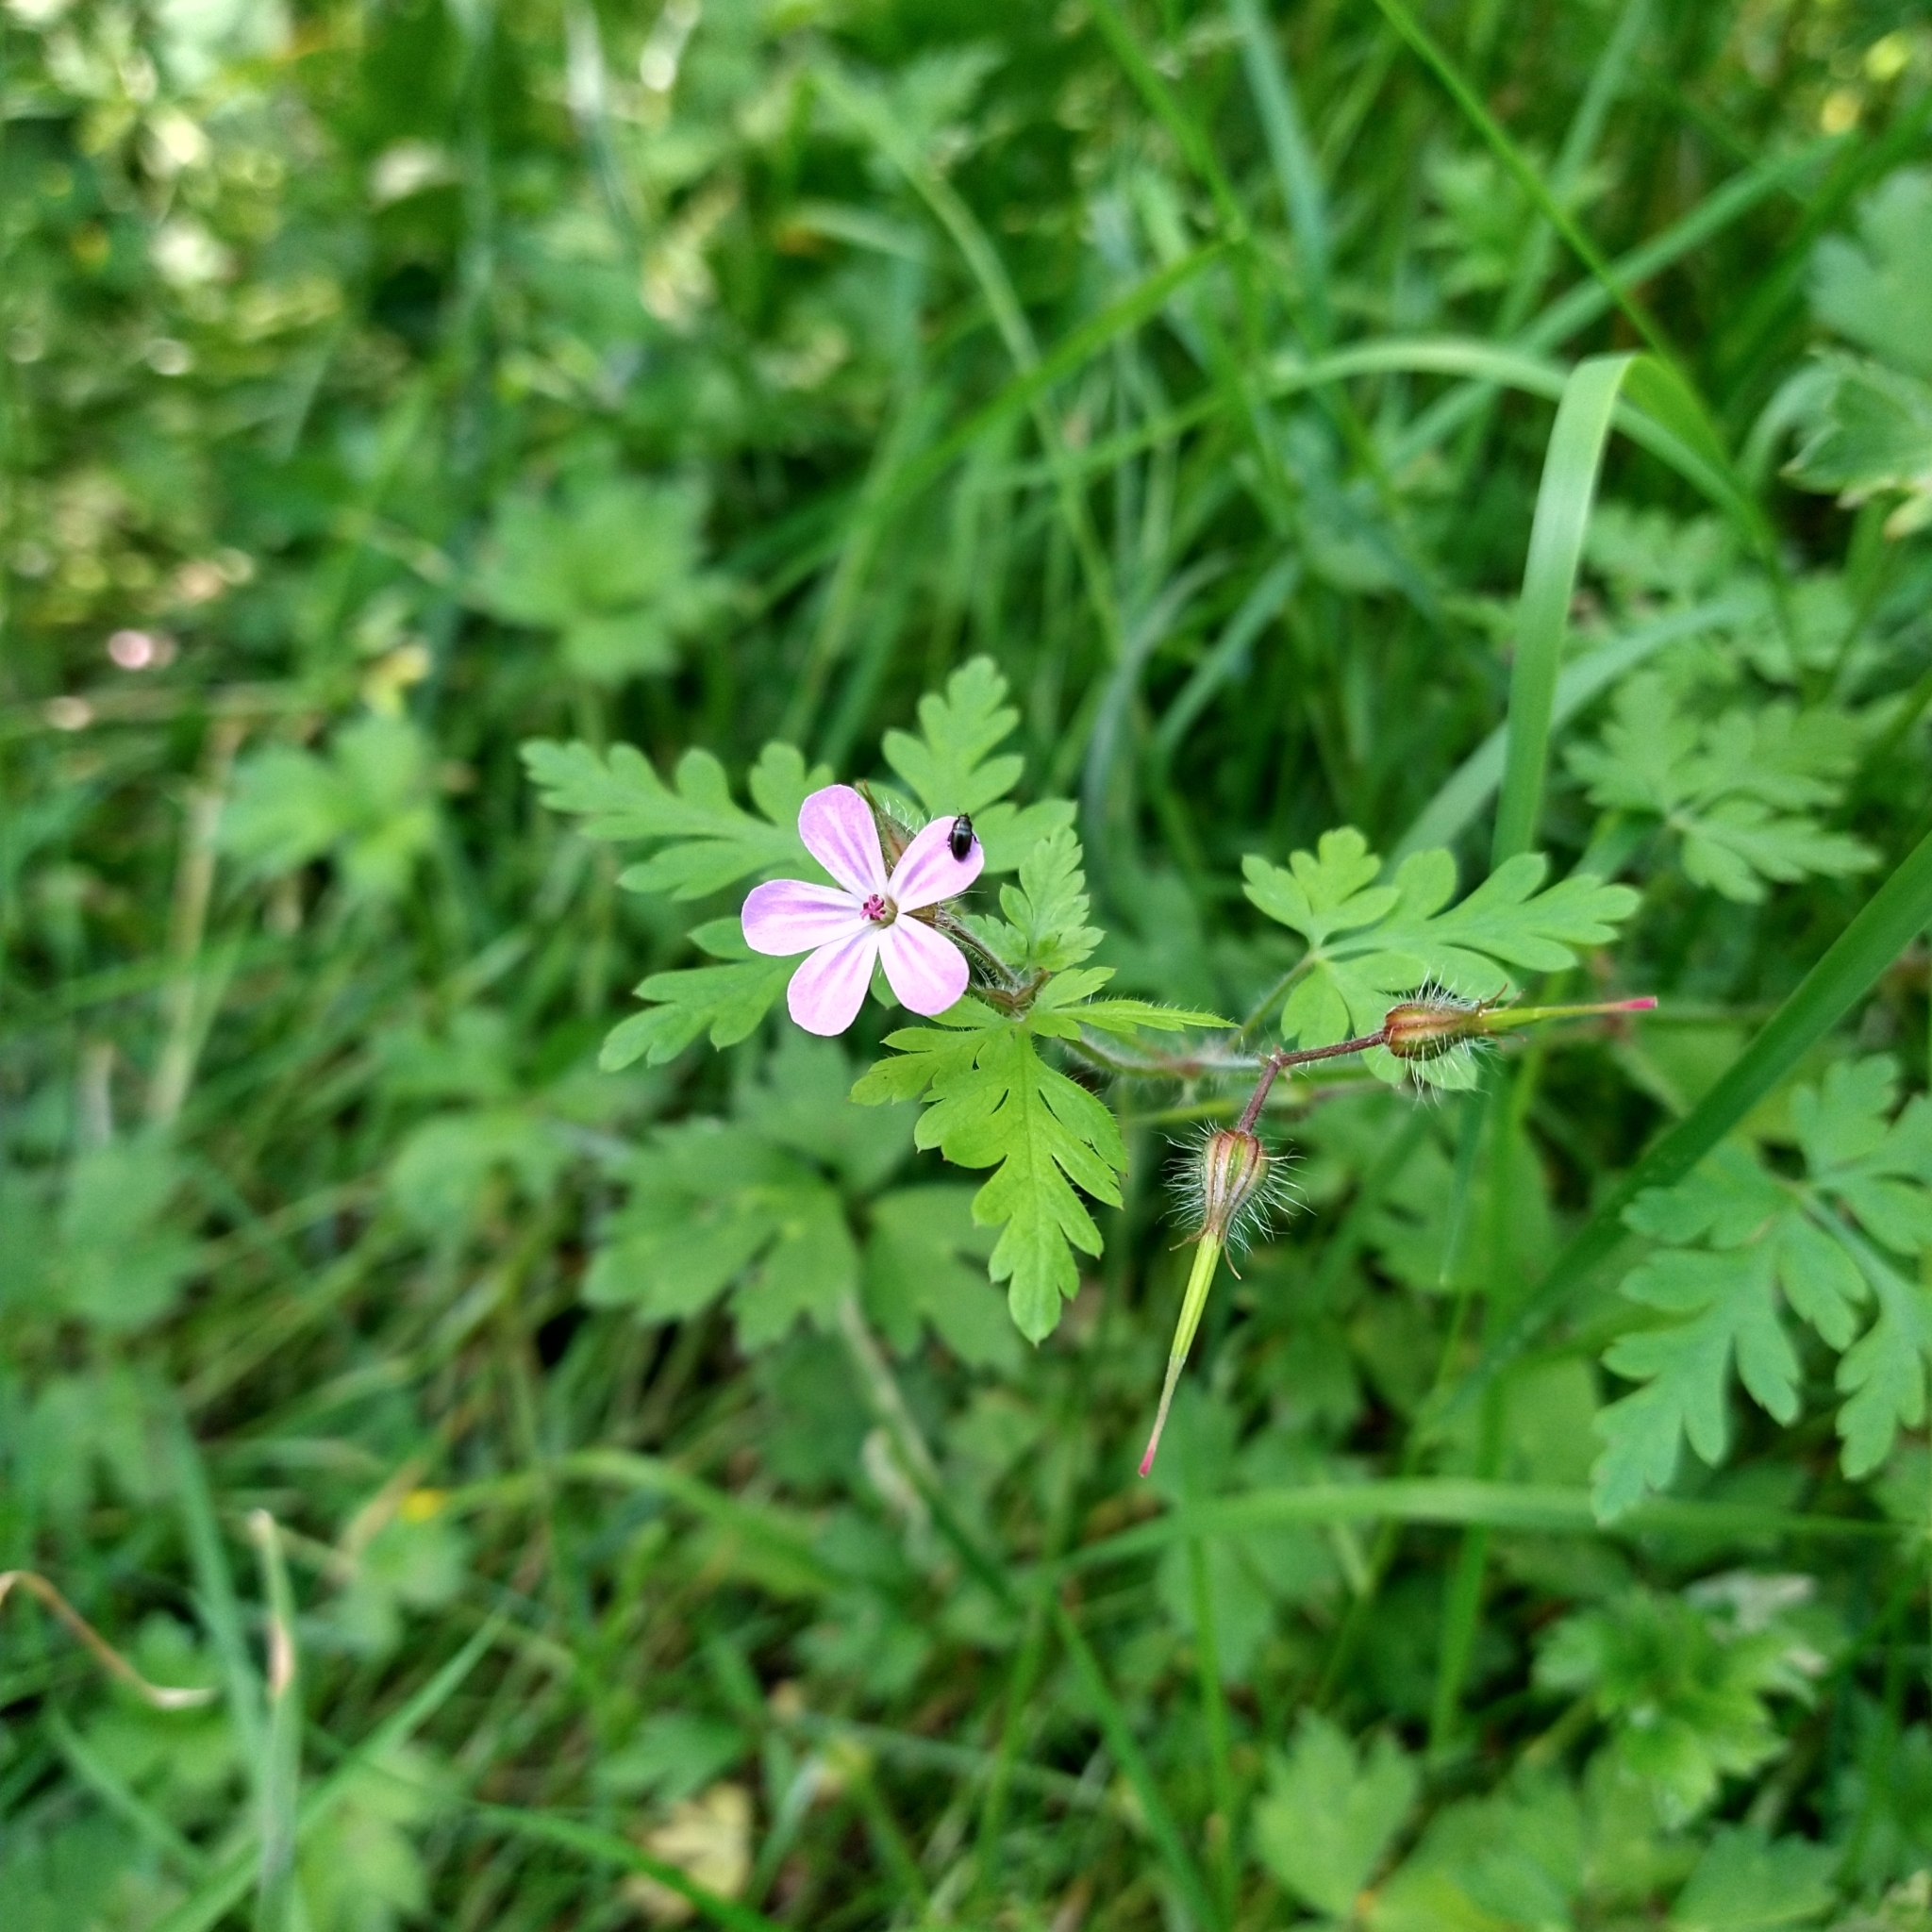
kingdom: Plantae
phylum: Tracheophyta
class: Magnoliopsida
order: Geraniales
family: Geraniaceae
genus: Geranium
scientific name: Geranium robertianum
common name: Herb-robert
